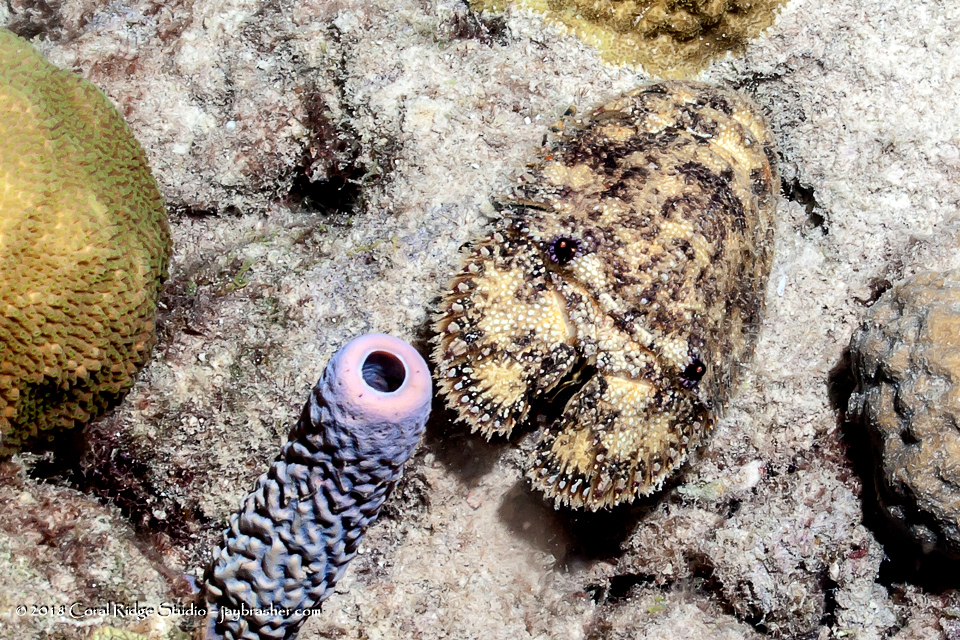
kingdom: Animalia
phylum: Arthropoda
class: Malacostraca
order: Decapoda
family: Scyllaridae
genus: Parribacus
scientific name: Parribacus antarcticus
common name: Sculptured mitten lobster
